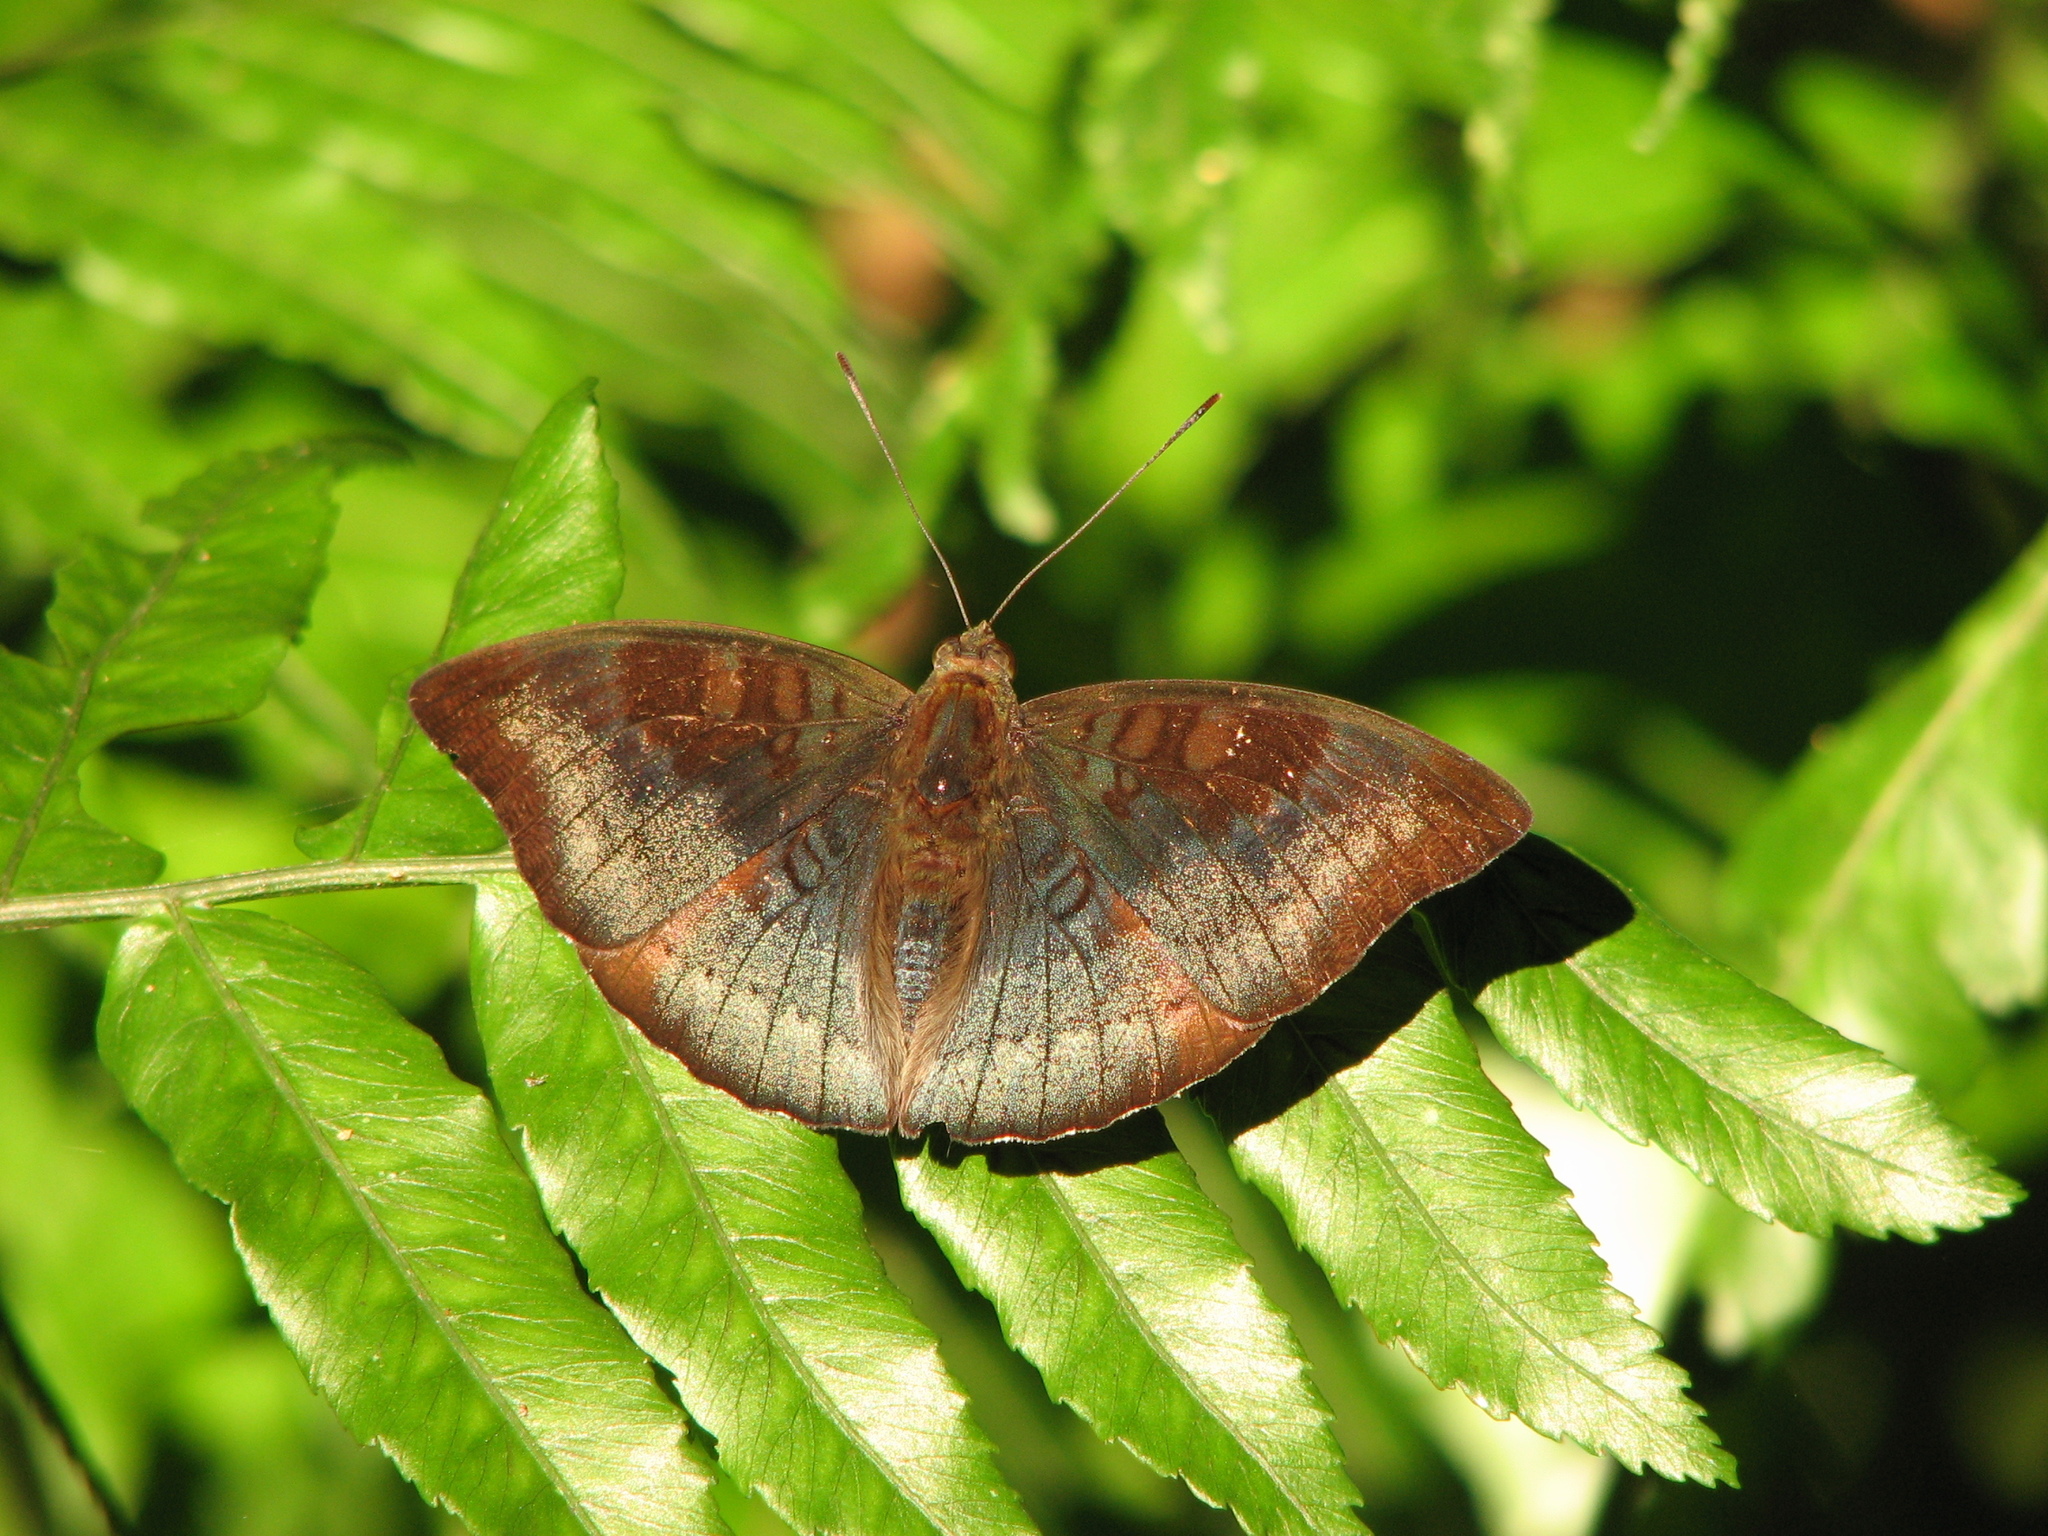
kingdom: Animalia
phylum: Arthropoda
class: Insecta
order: Lepidoptera
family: Nymphalidae
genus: Euthalia
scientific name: Euthalia monina
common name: Powdered baron
